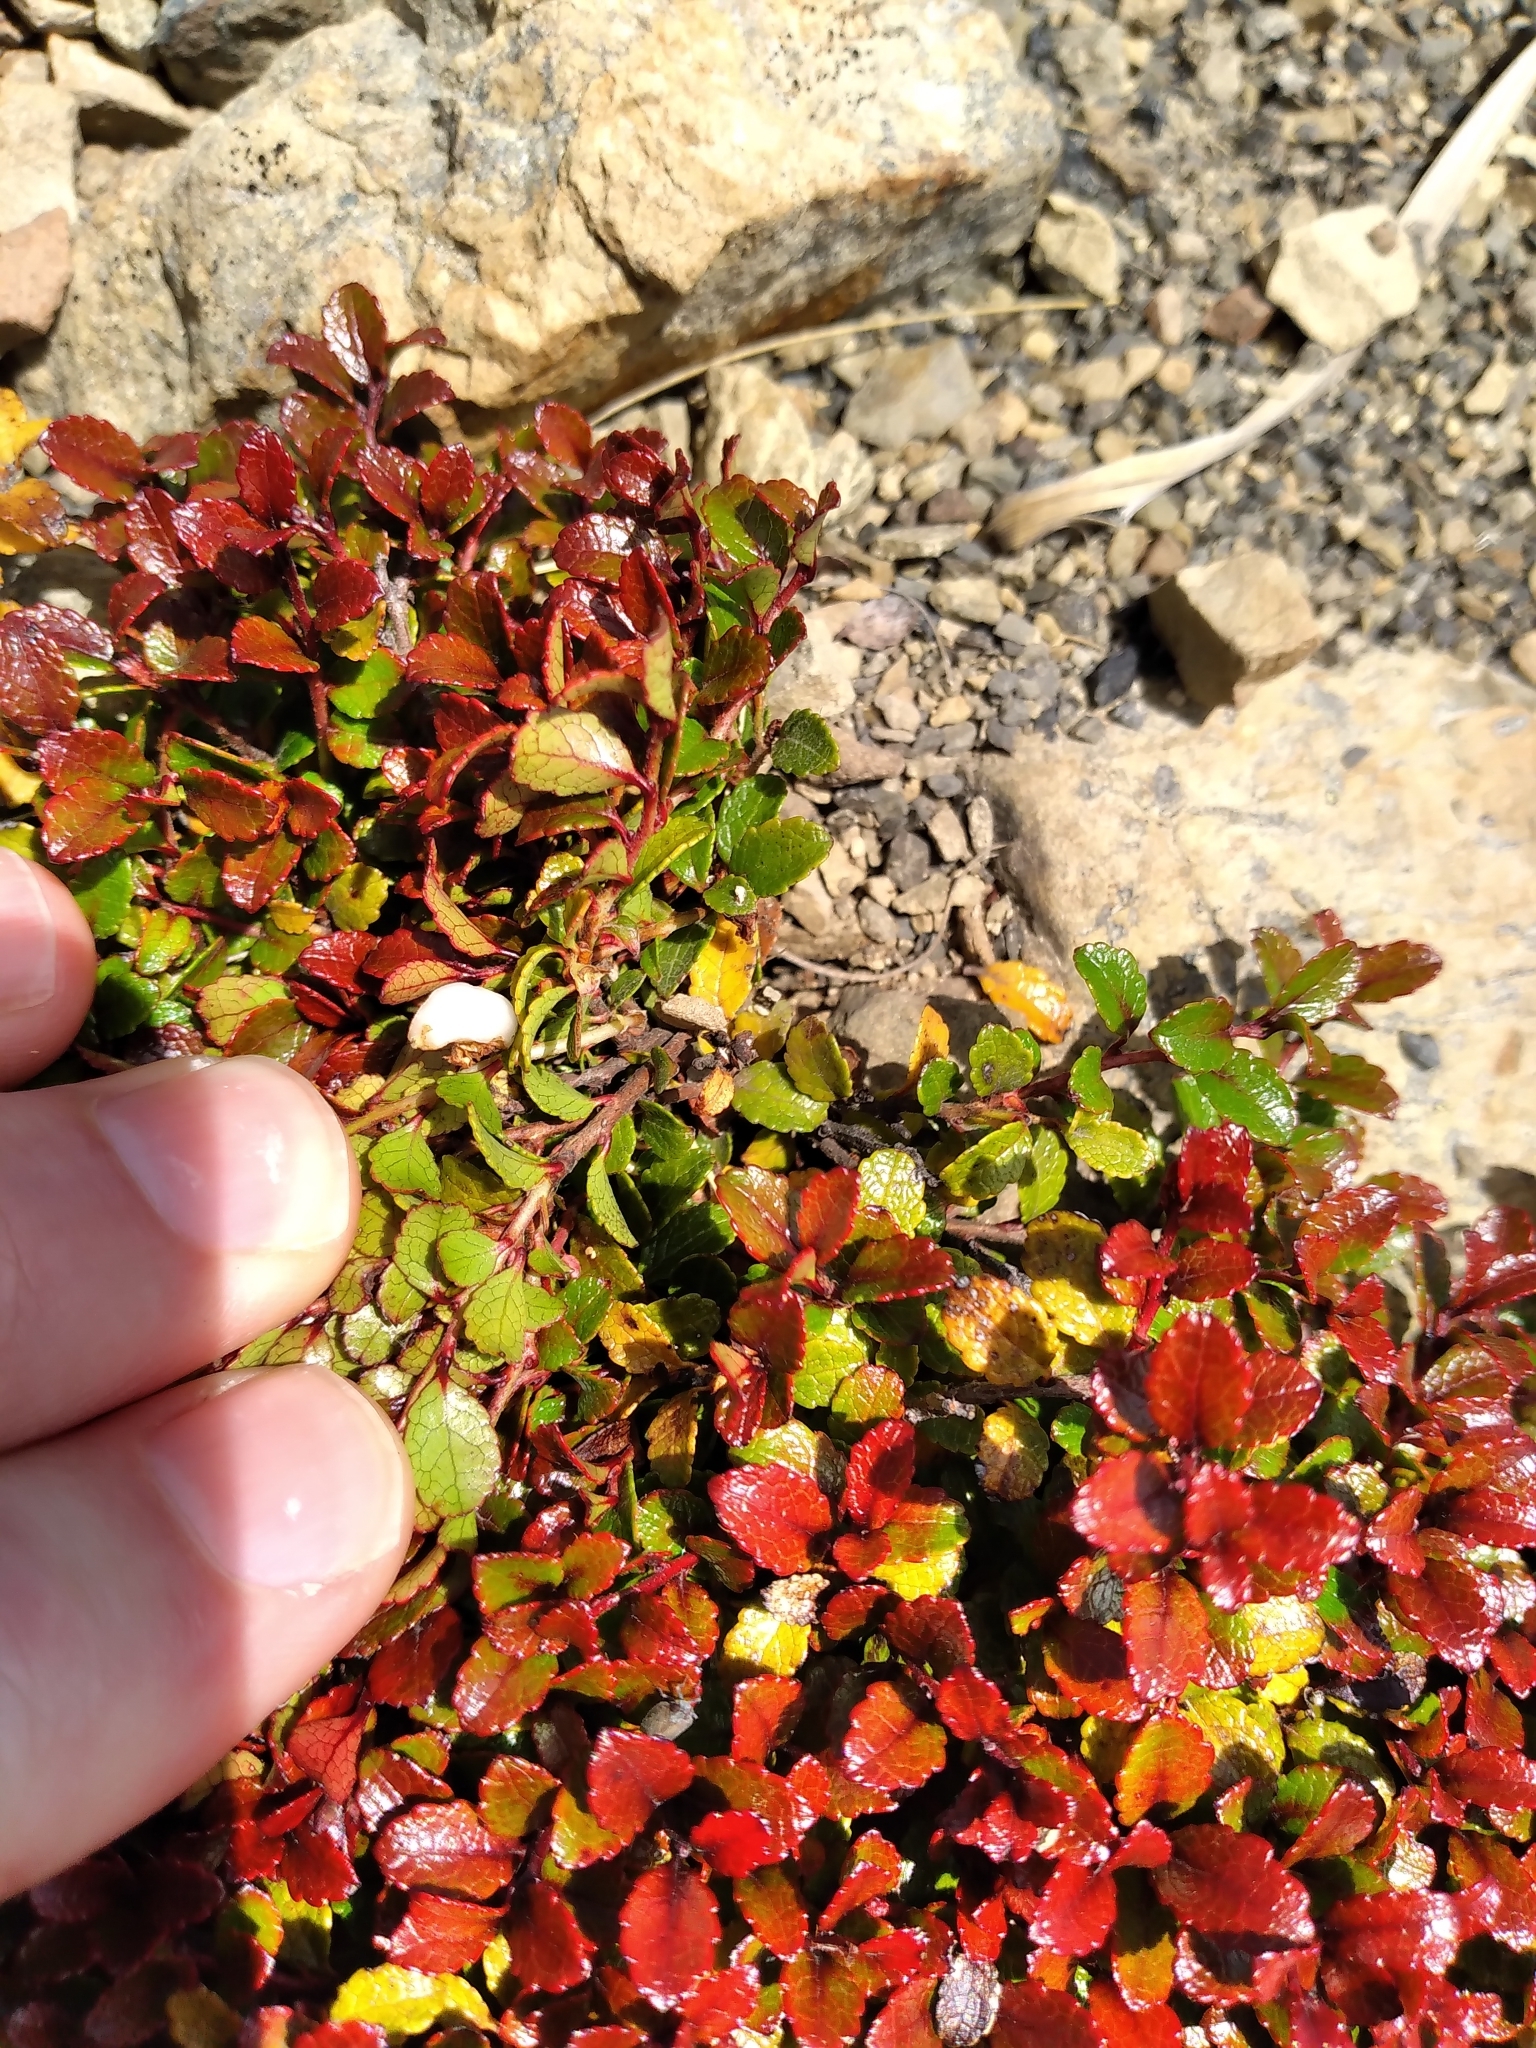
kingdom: Plantae
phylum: Tracheophyta
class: Magnoliopsida
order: Ericales
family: Ericaceae
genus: Gaultheria
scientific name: Gaultheria depressa
